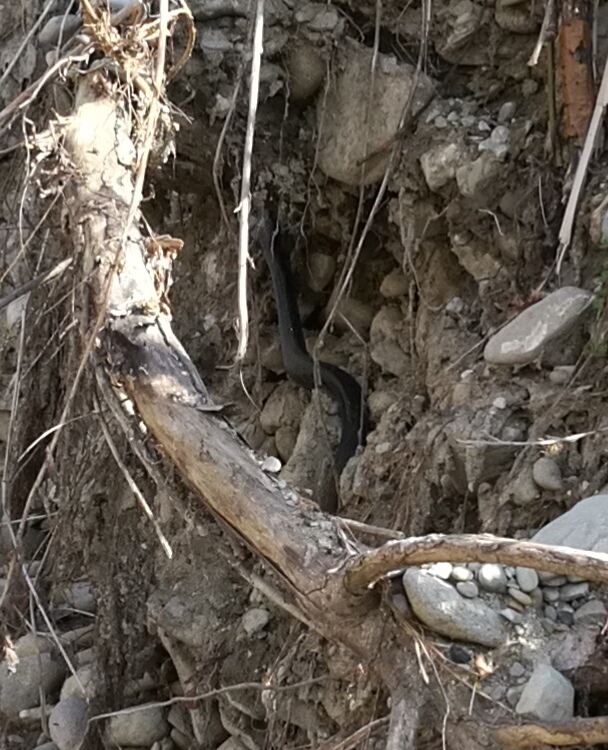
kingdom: Animalia
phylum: Chordata
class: Squamata
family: Colubridae
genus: Hierophis
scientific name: Hierophis viridiflavus
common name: Green whip snake
